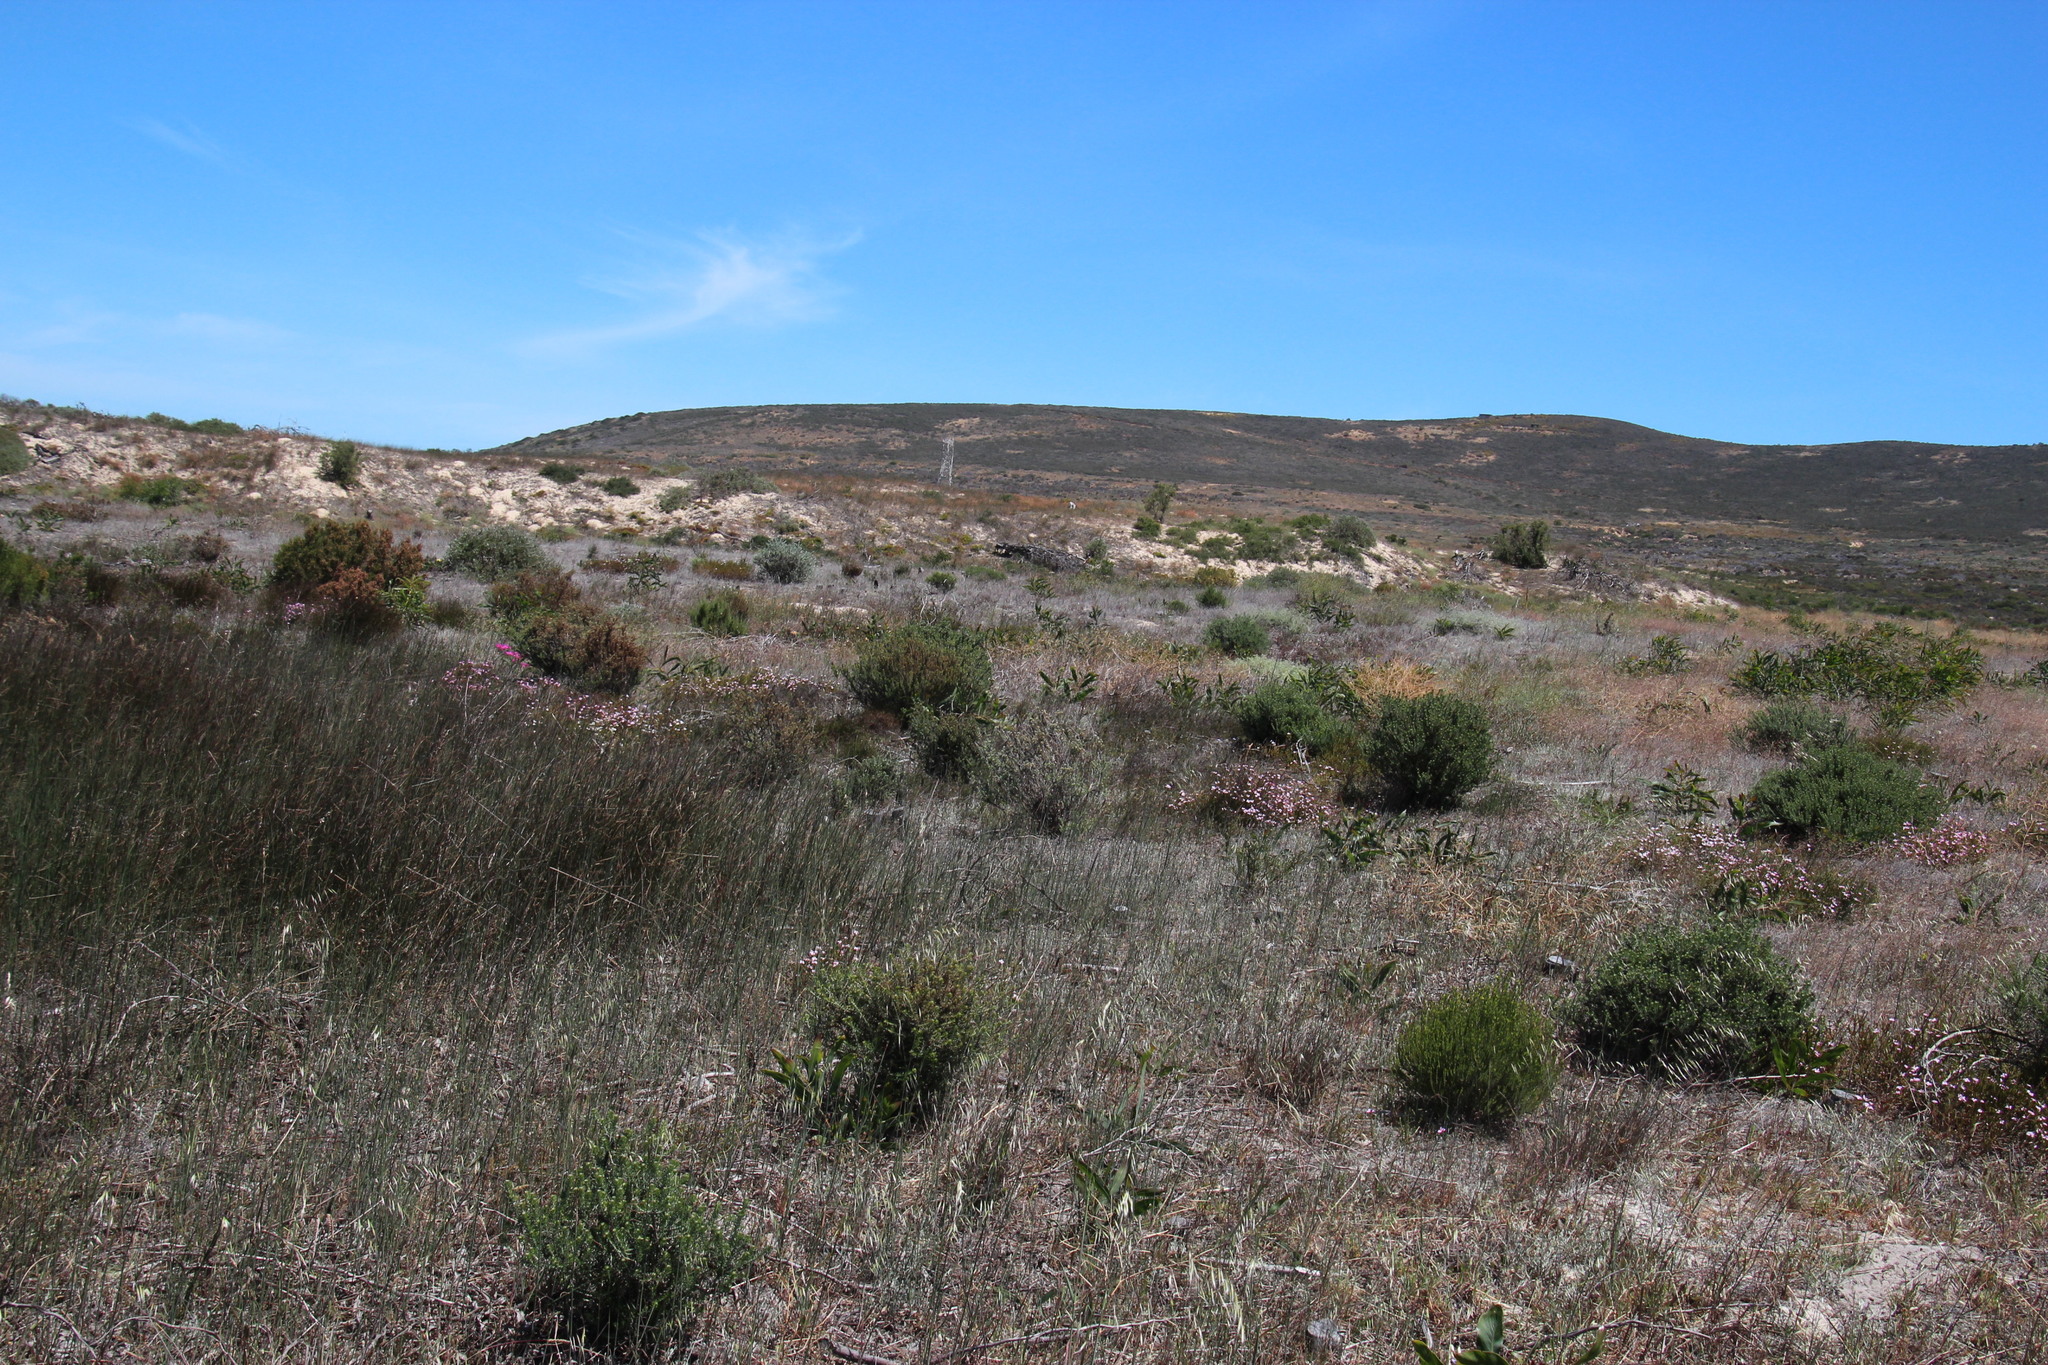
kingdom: Plantae
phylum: Tracheophyta
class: Magnoliopsida
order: Malvales
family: Thymelaeaceae
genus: Lachnaea
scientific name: Lachnaea grandiflora
